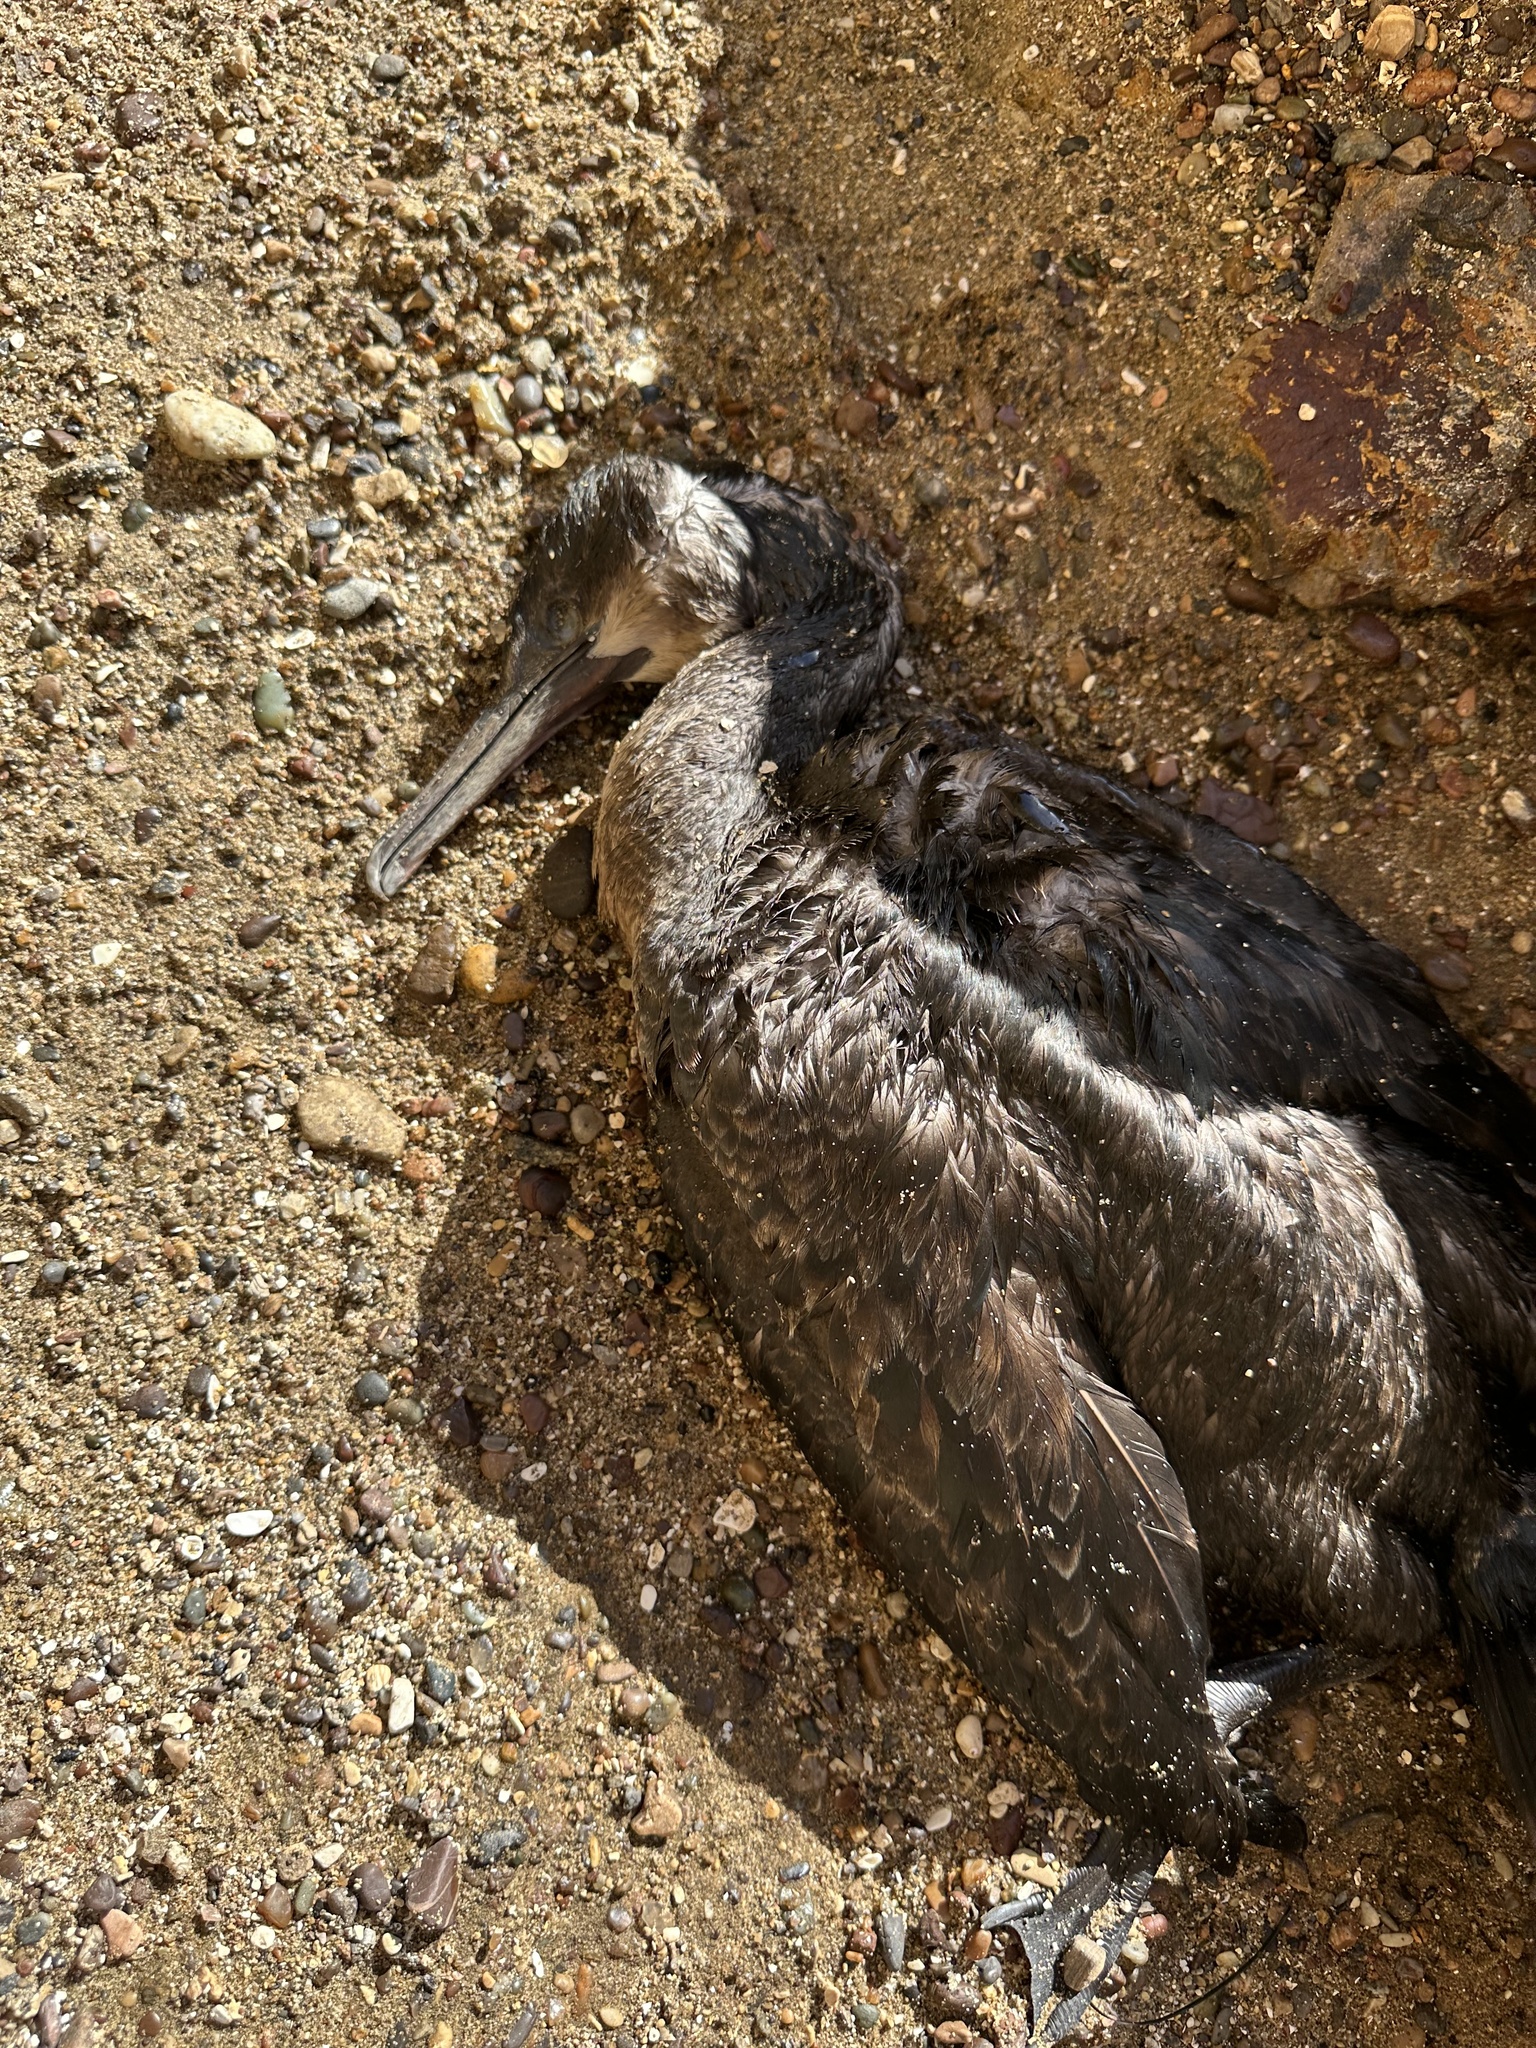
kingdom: Animalia
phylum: Chordata
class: Aves
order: Suliformes
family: Phalacrocoracidae
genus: Urile
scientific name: Urile penicillatus
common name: Brandt's cormorant
